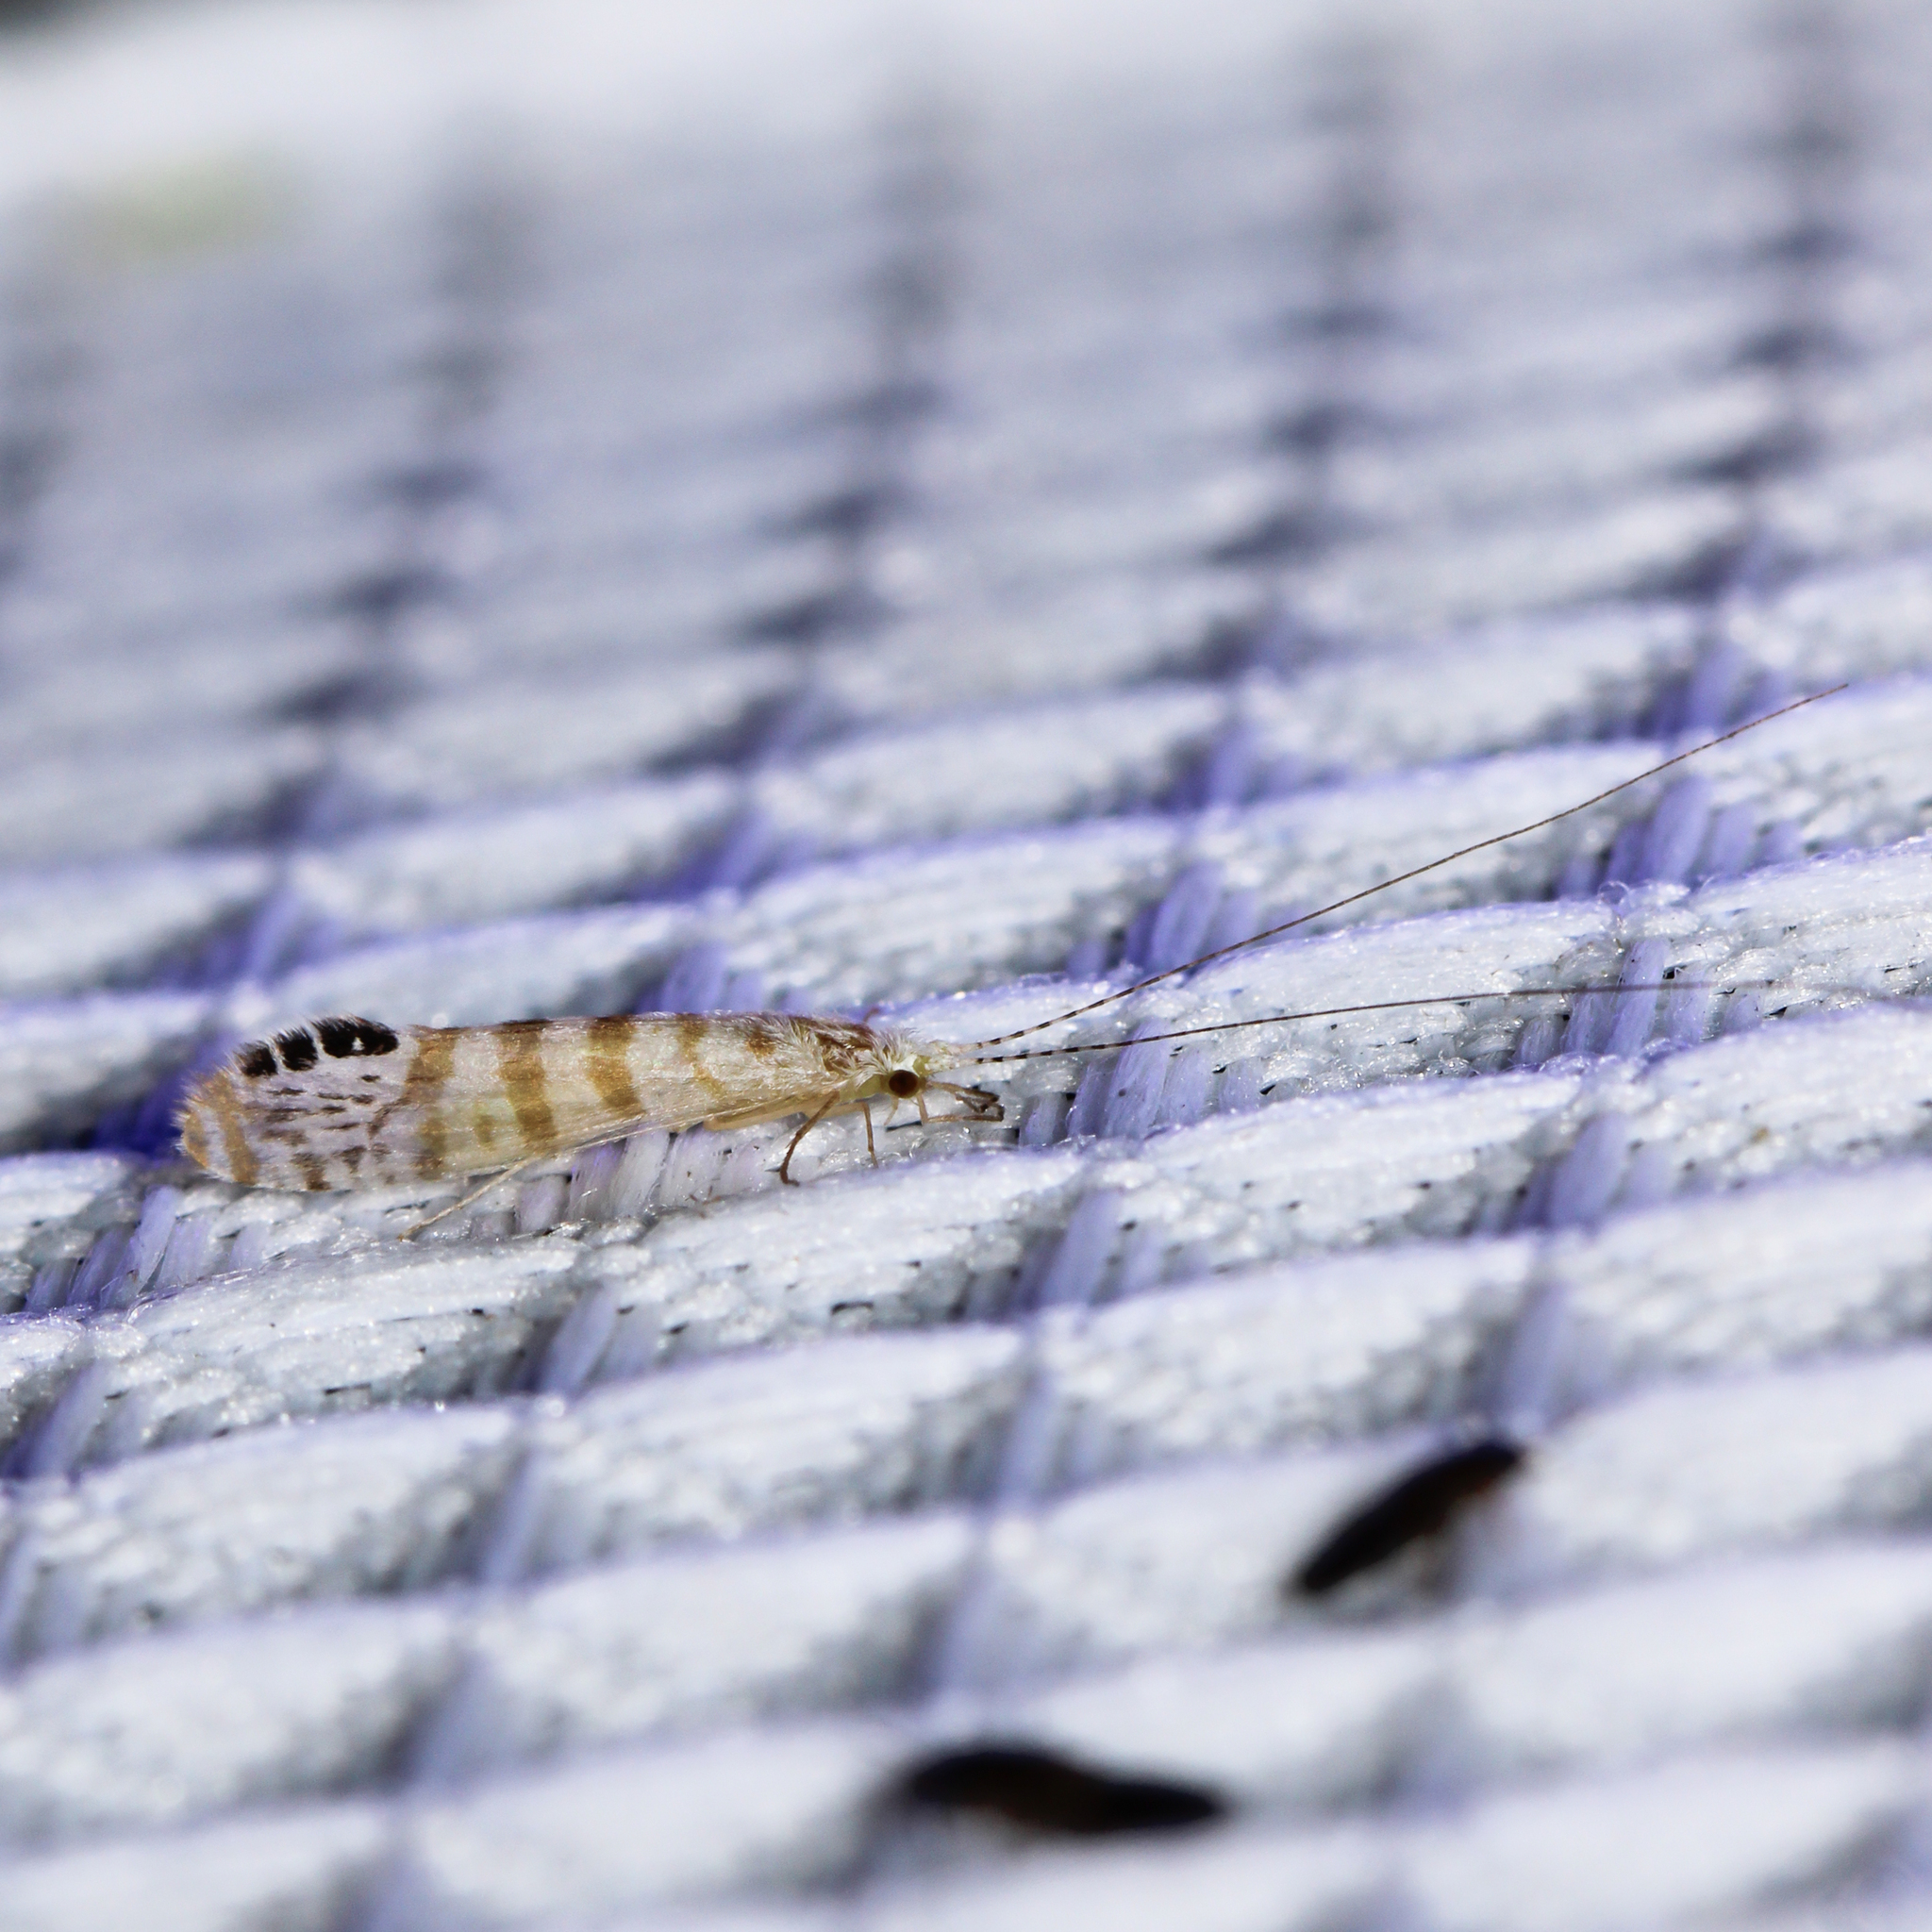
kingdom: Animalia
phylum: Arthropoda
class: Insecta
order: Trichoptera
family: Leptoceridae
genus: Nectopsyche
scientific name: Nectopsyche exquisita
